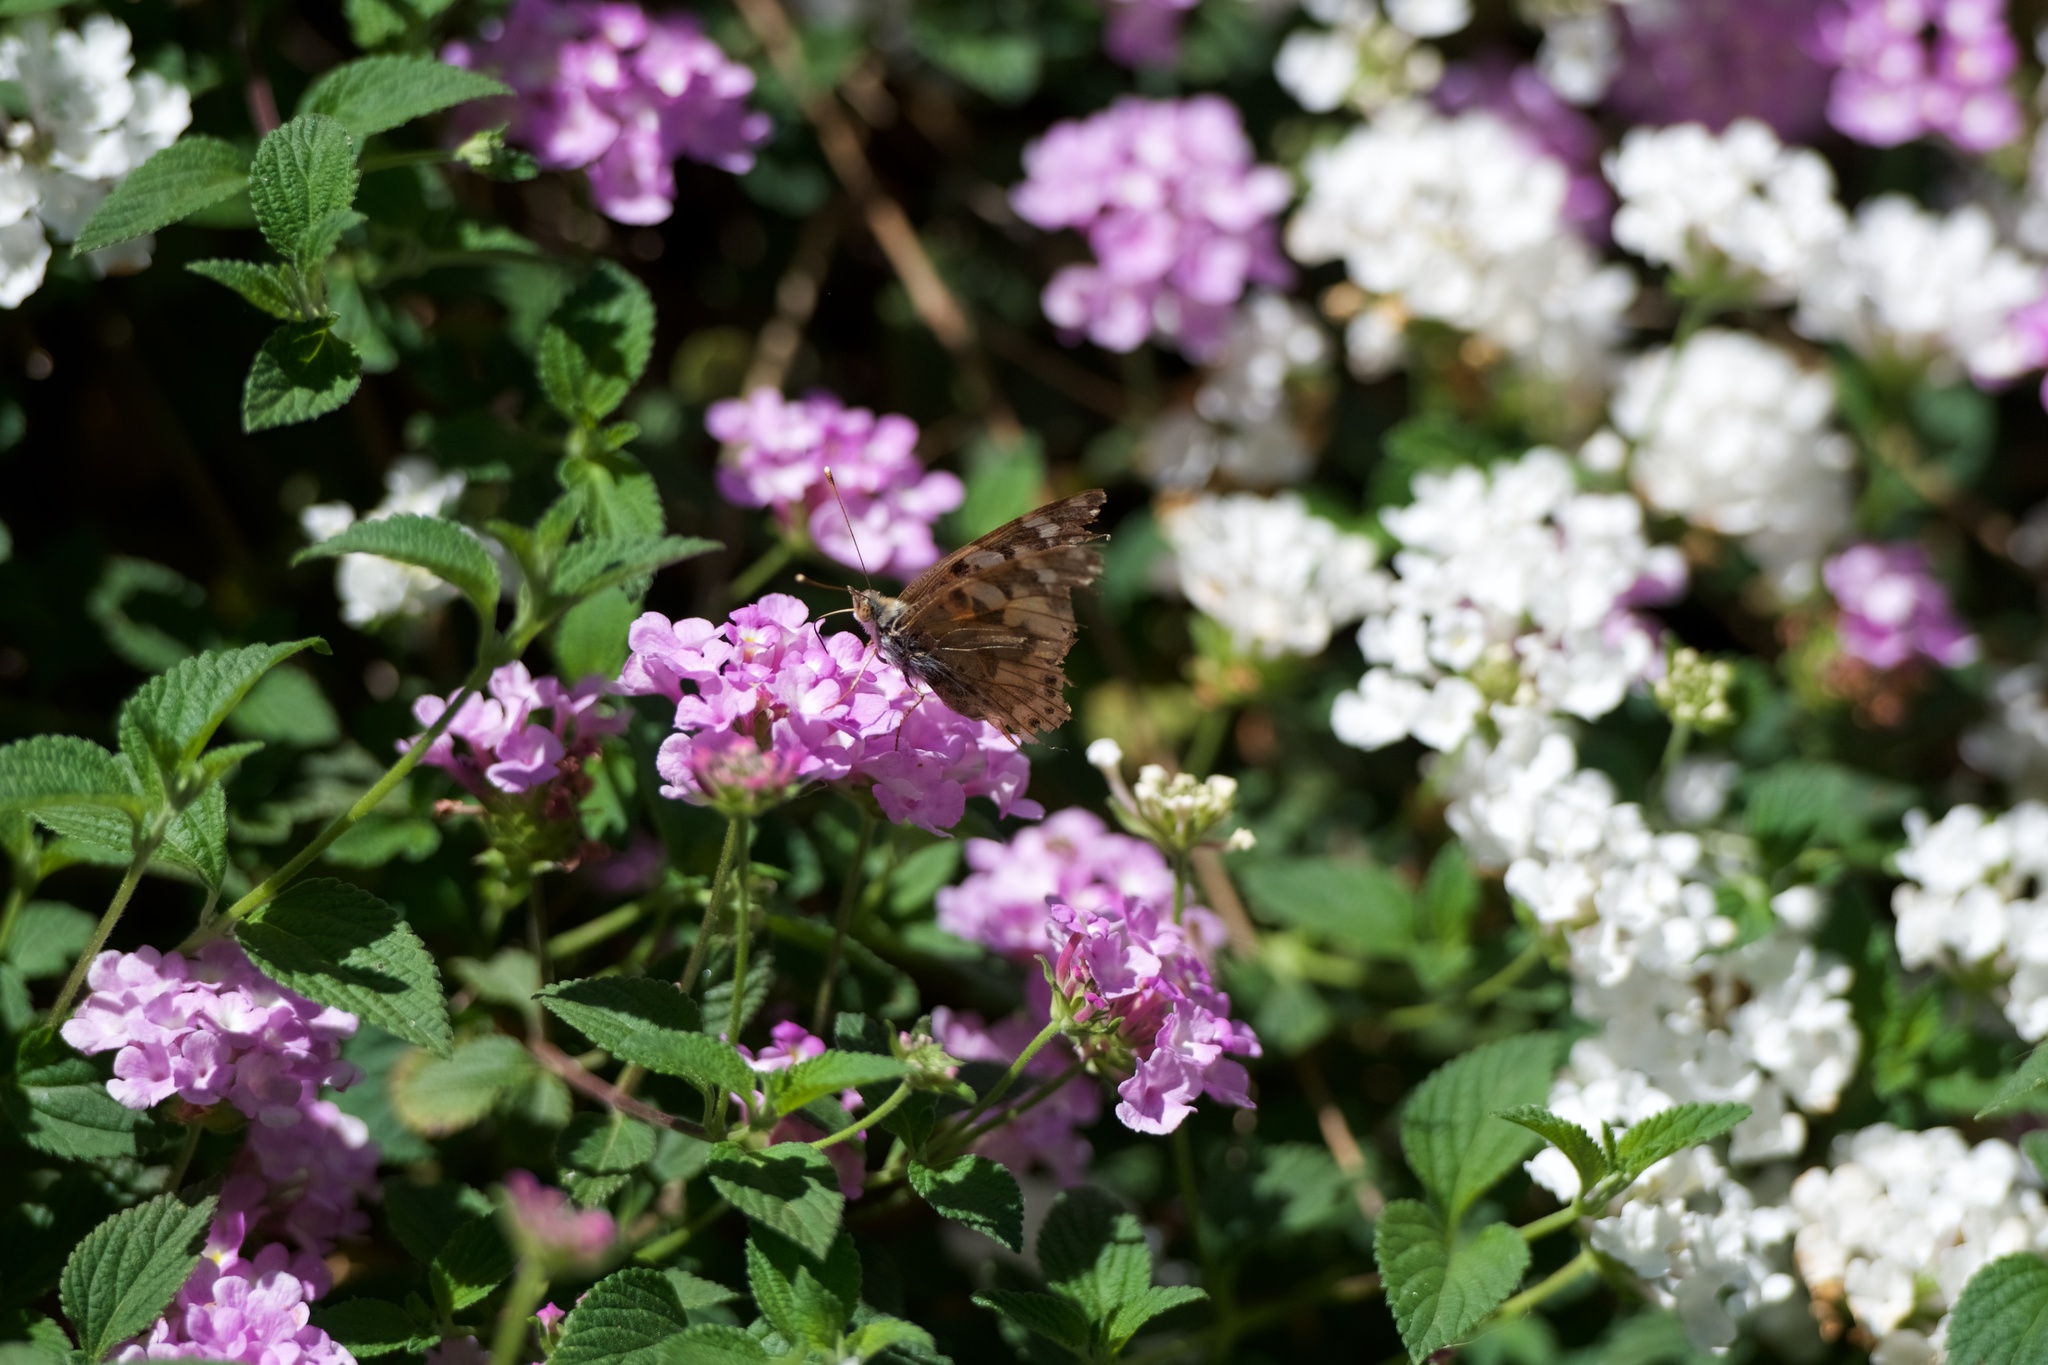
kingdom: Animalia
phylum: Arthropoda
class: Insecta
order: Lepidoptera
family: Nymphalidae
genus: Vanessa
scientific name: Vanessa cardui
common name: Painted lady
